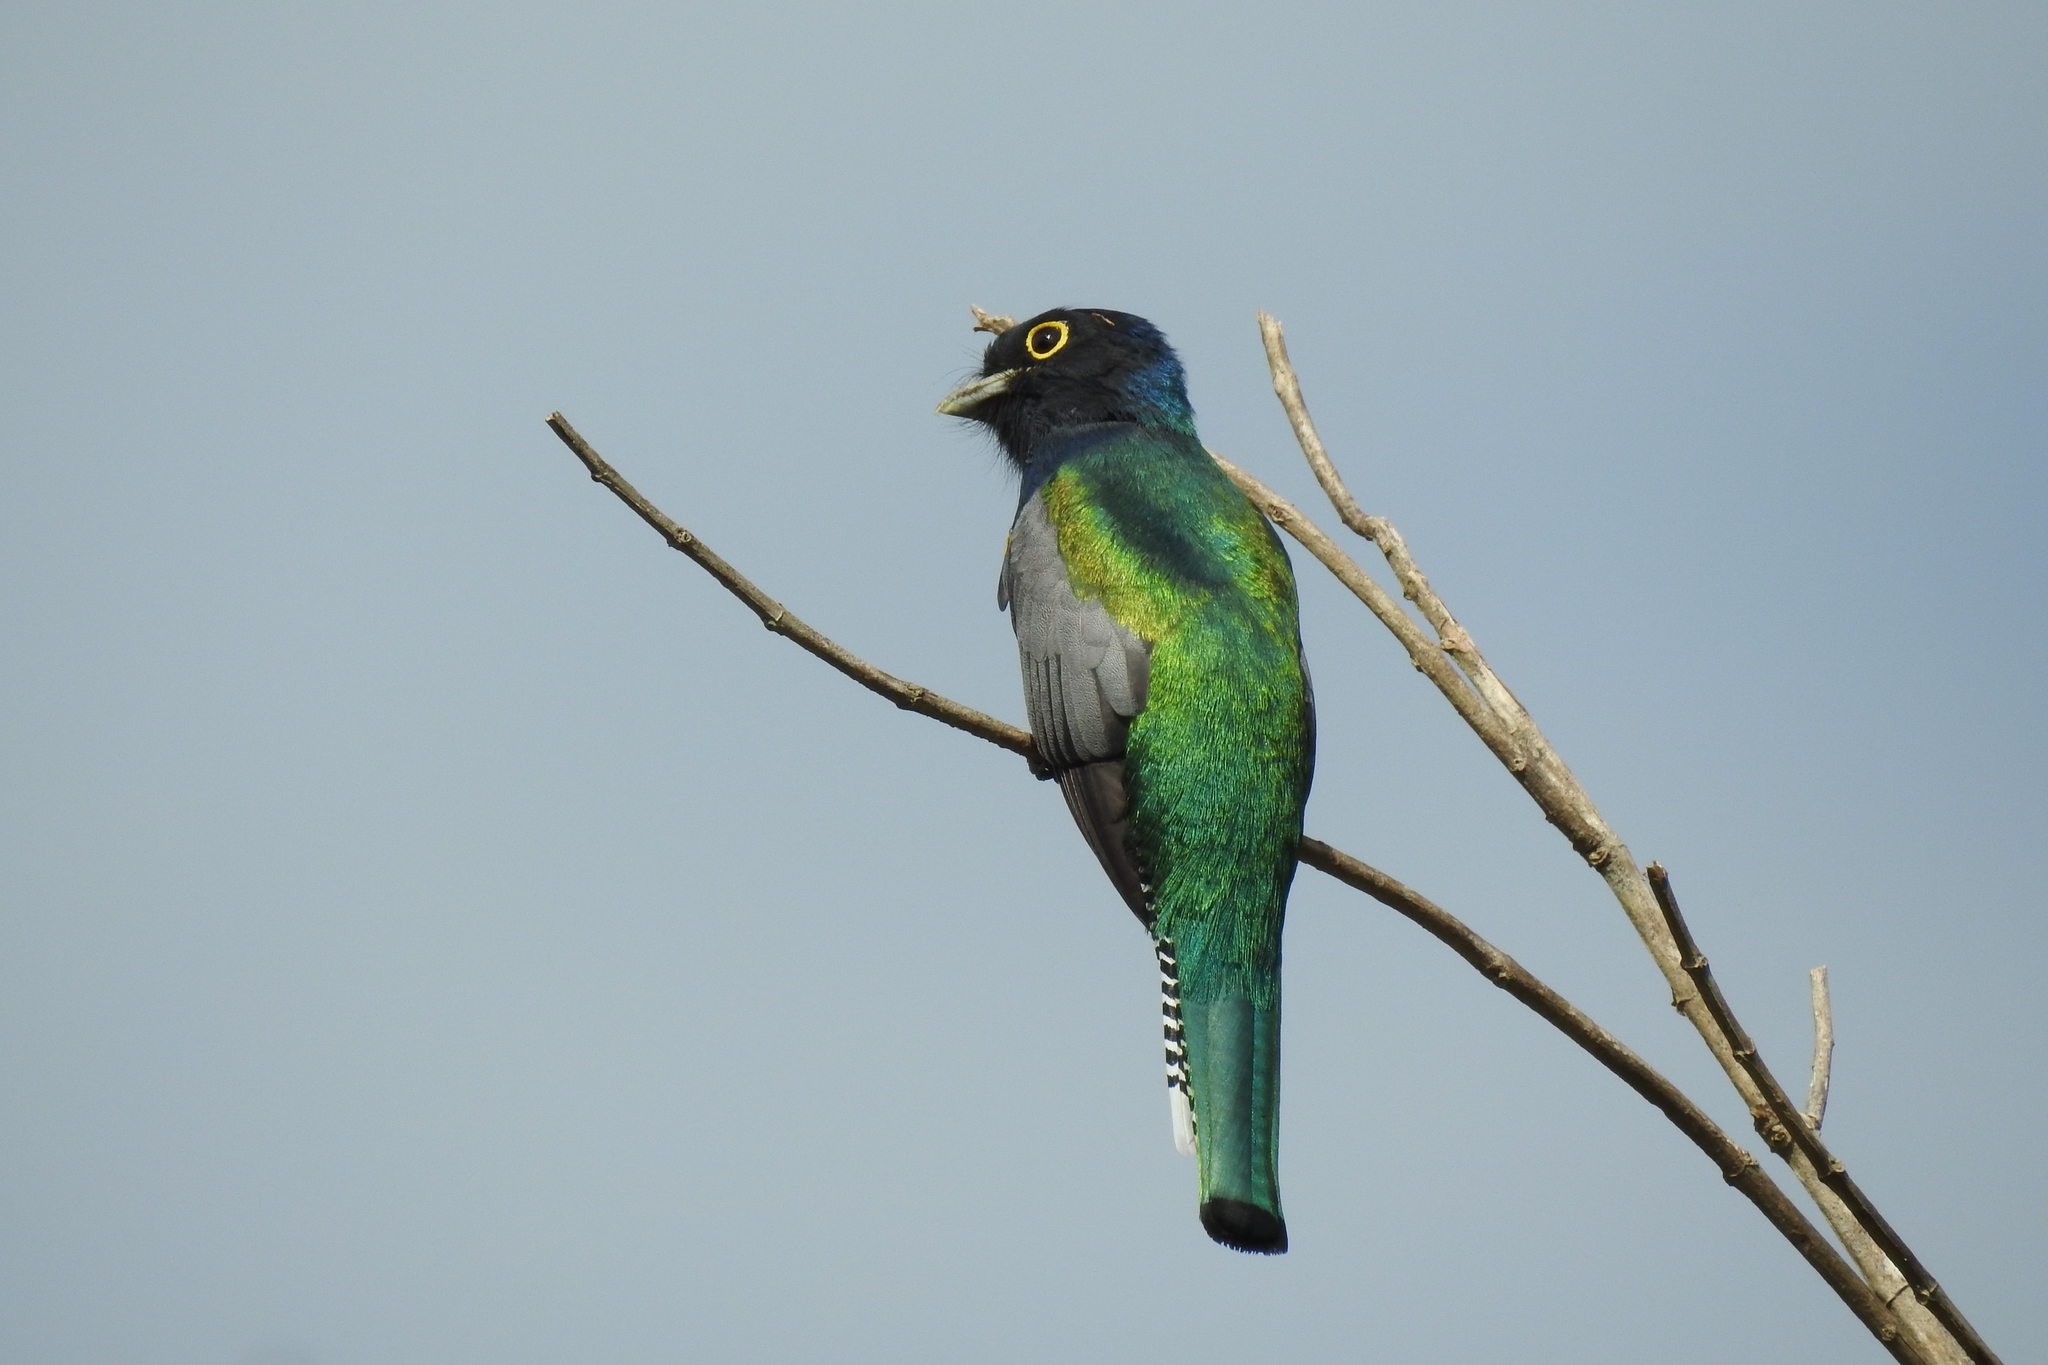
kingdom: Animalia
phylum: Chordata
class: Aves
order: Trogoniformes
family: Trogonidae
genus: Trogon
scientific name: Trogon caligatus
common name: Gartered trogon
